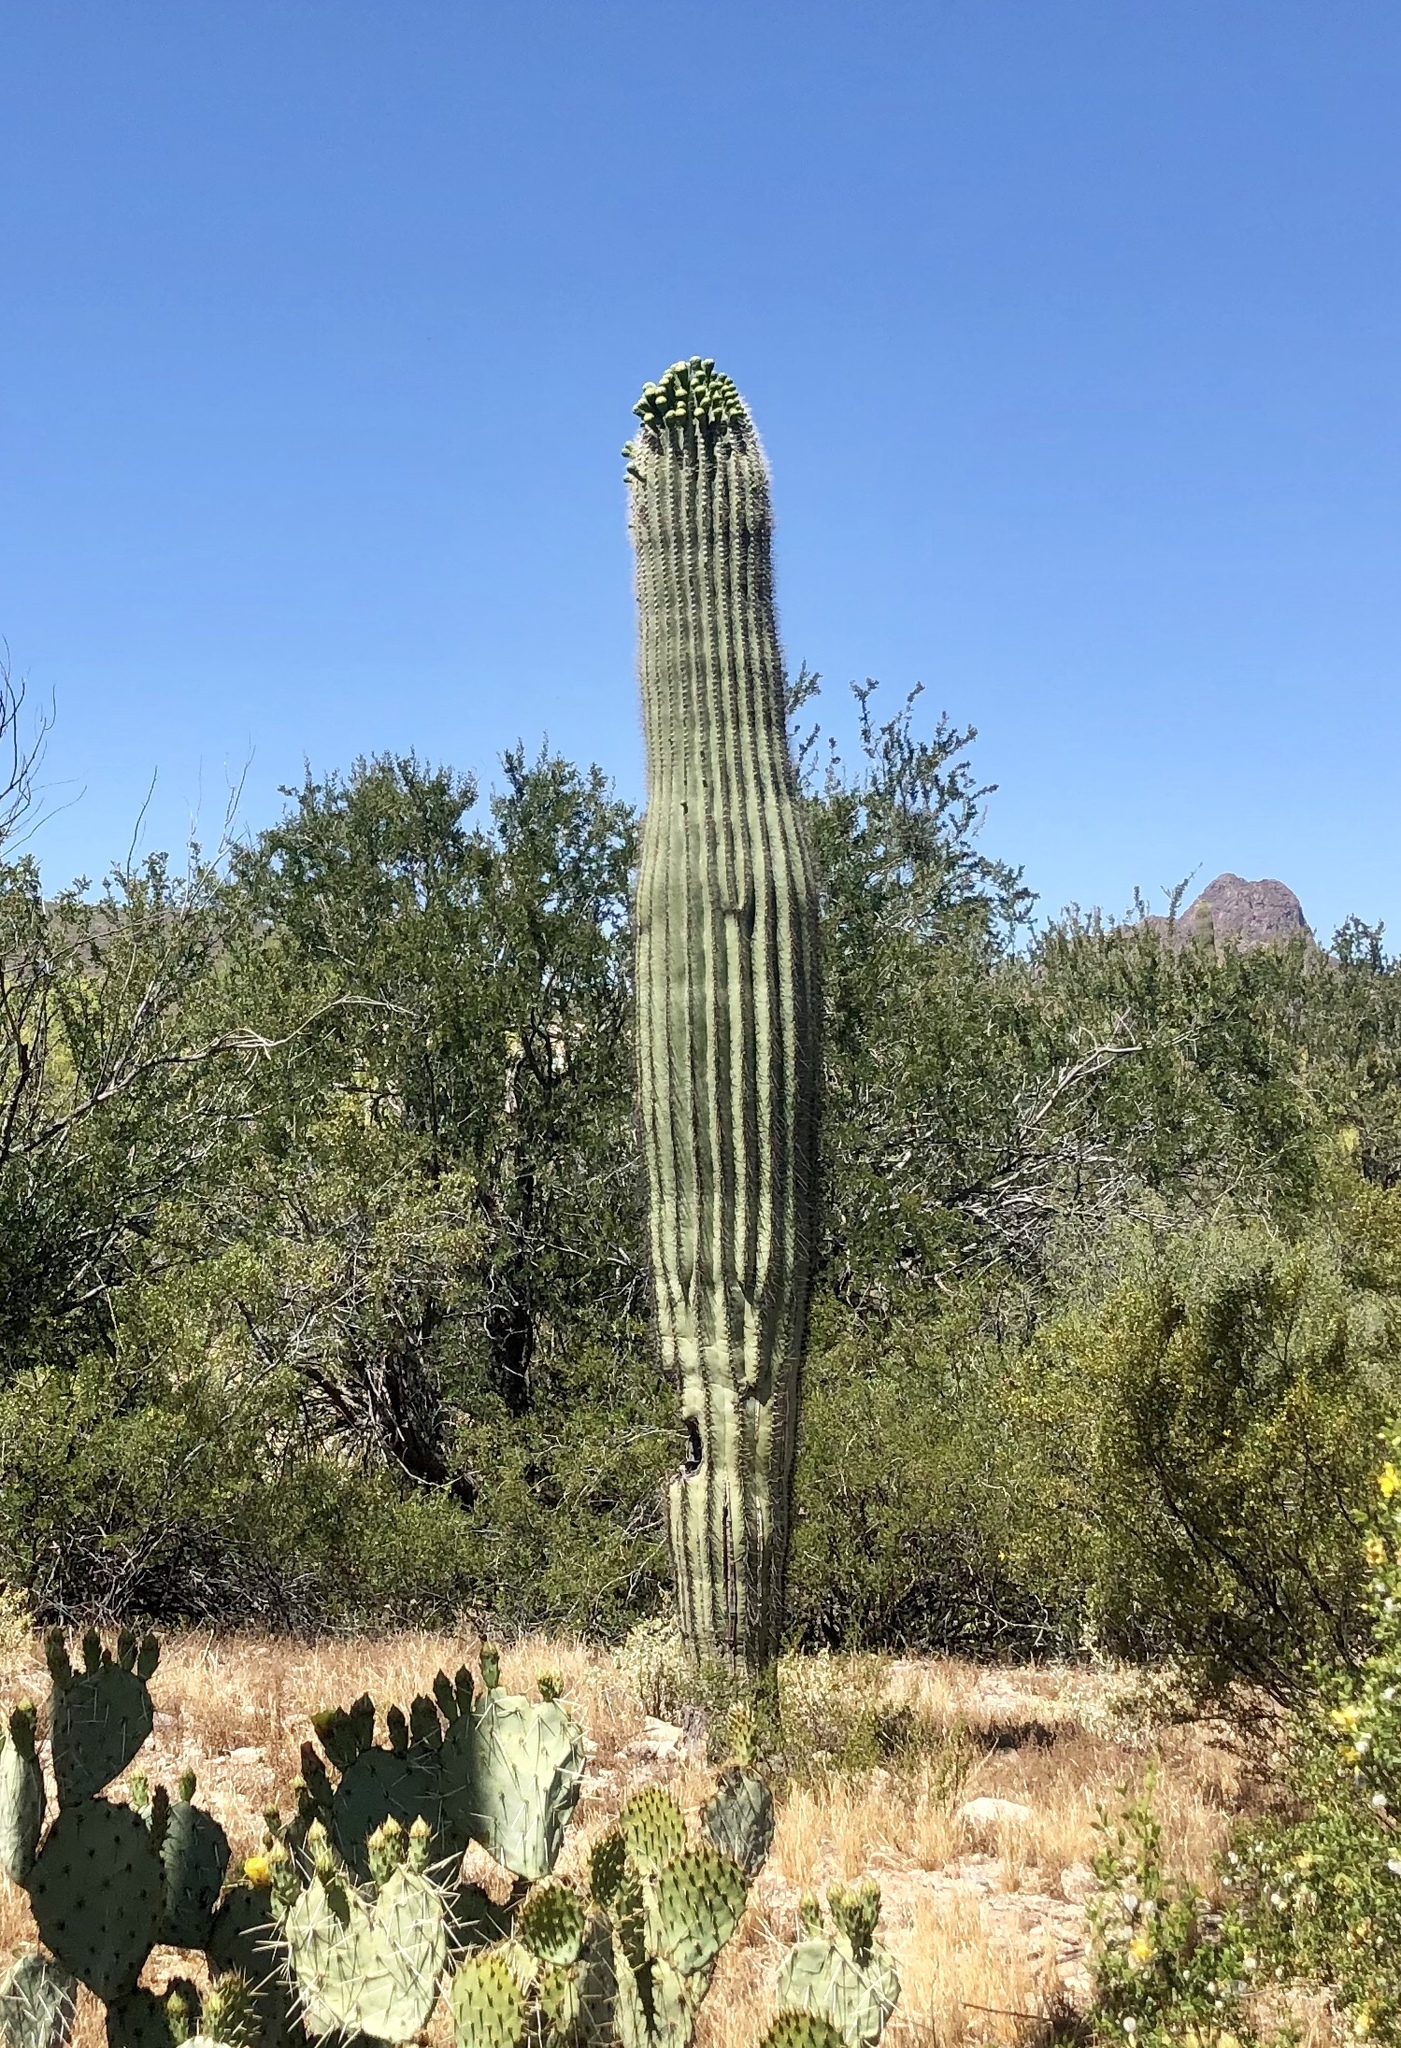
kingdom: Plantae
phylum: Tracheophyta
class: Magnoliopsida
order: Caryophyllales
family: Cactaceae
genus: Carnegiea
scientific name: Carnegiea gigantea
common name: Saguaro
